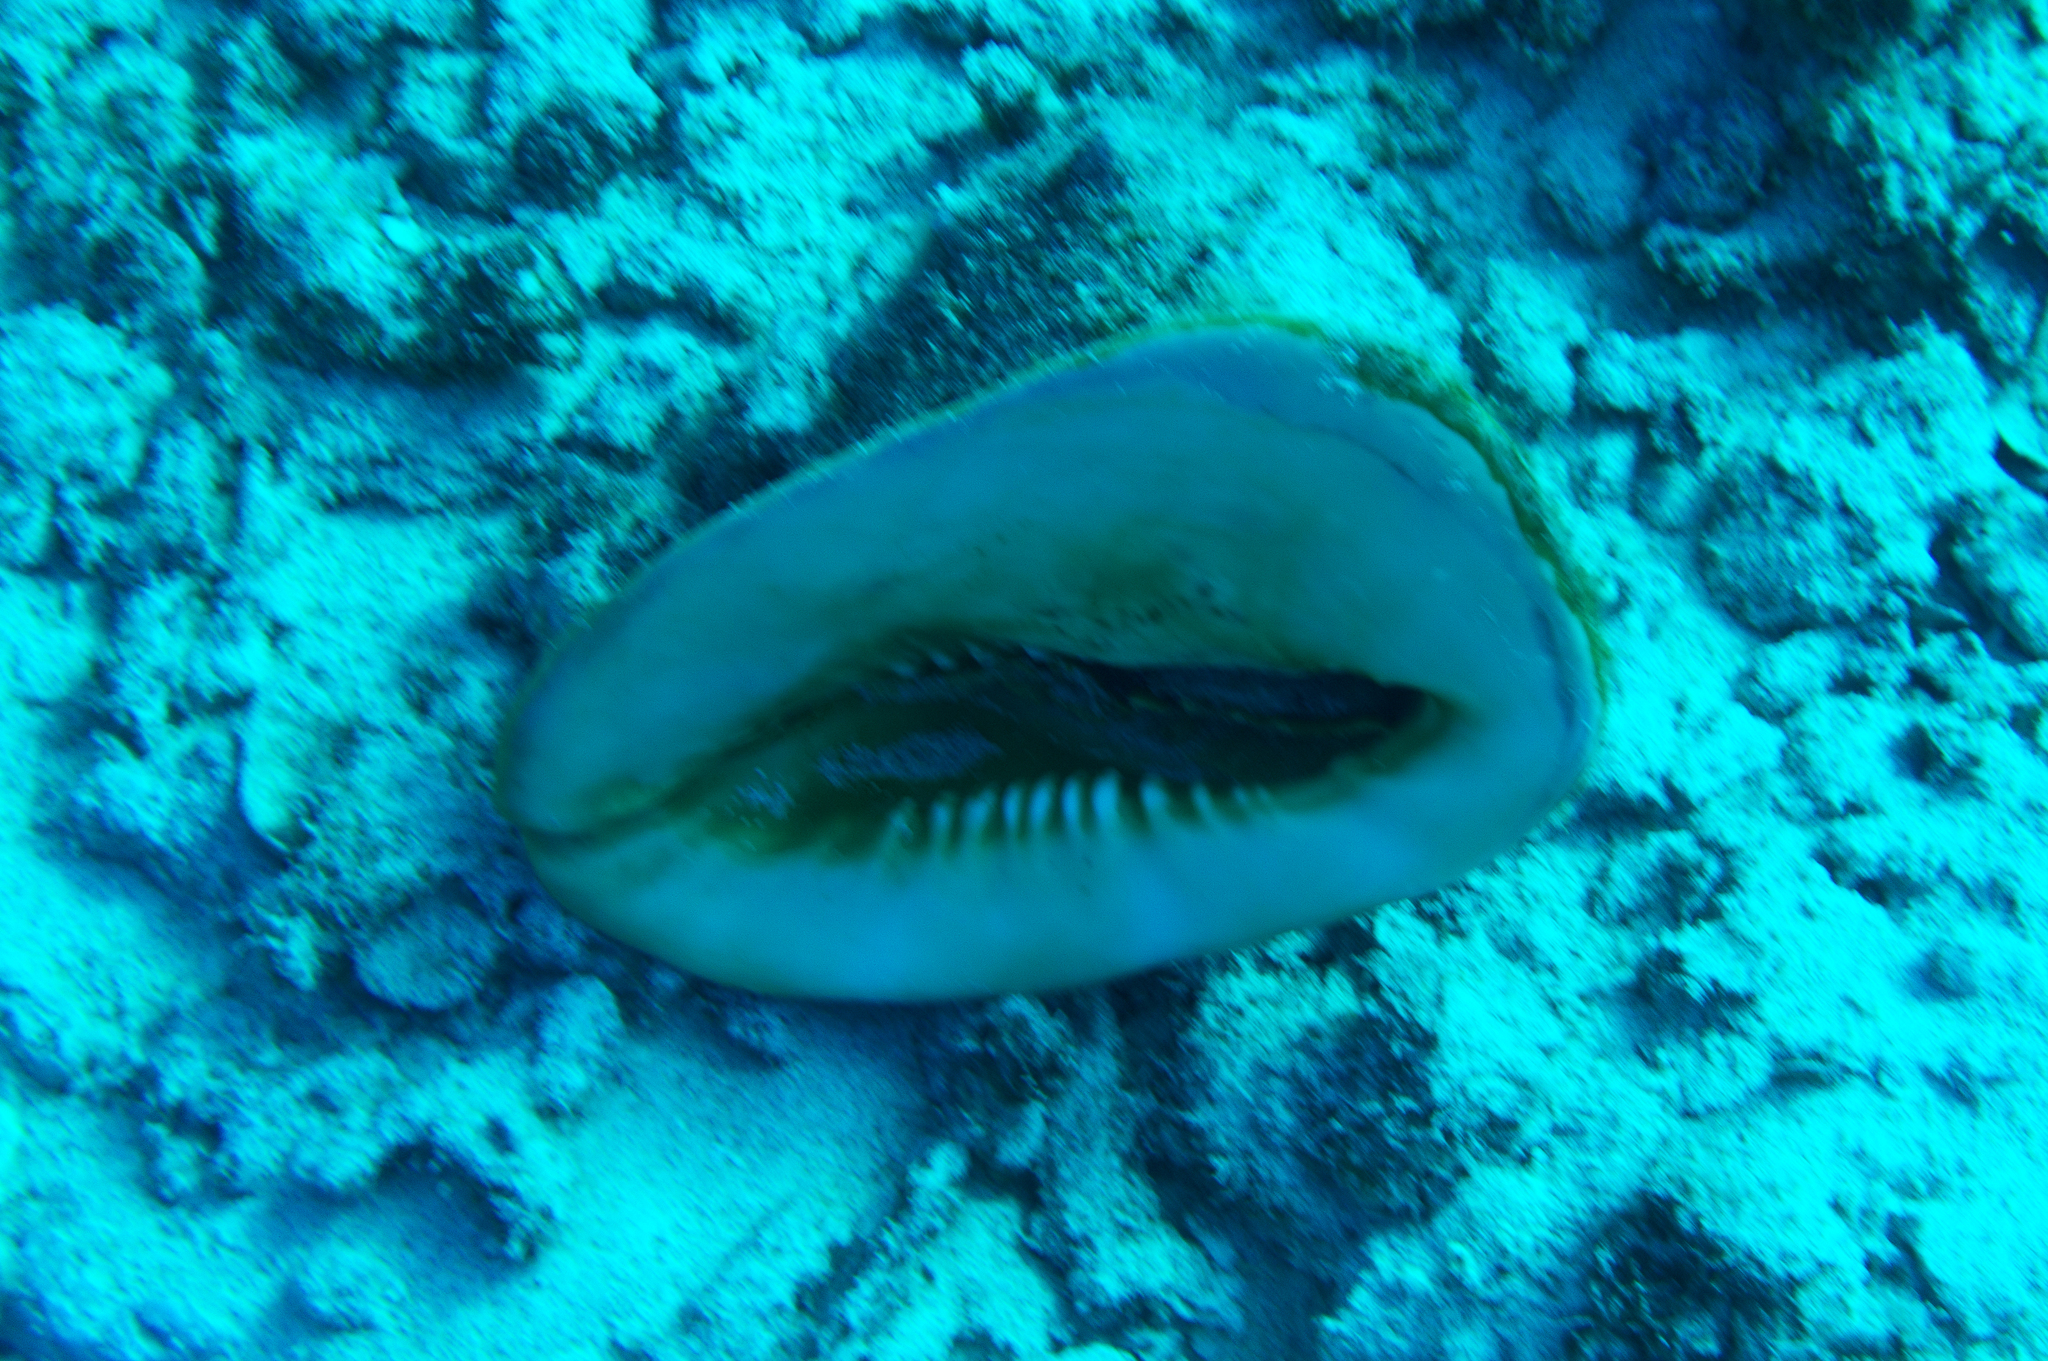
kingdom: Animalia
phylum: Mollusca
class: Gastropoda
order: Littorinimorpha
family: Cassidae
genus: Cassis
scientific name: Cassis cornuta
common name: Giant helmet
